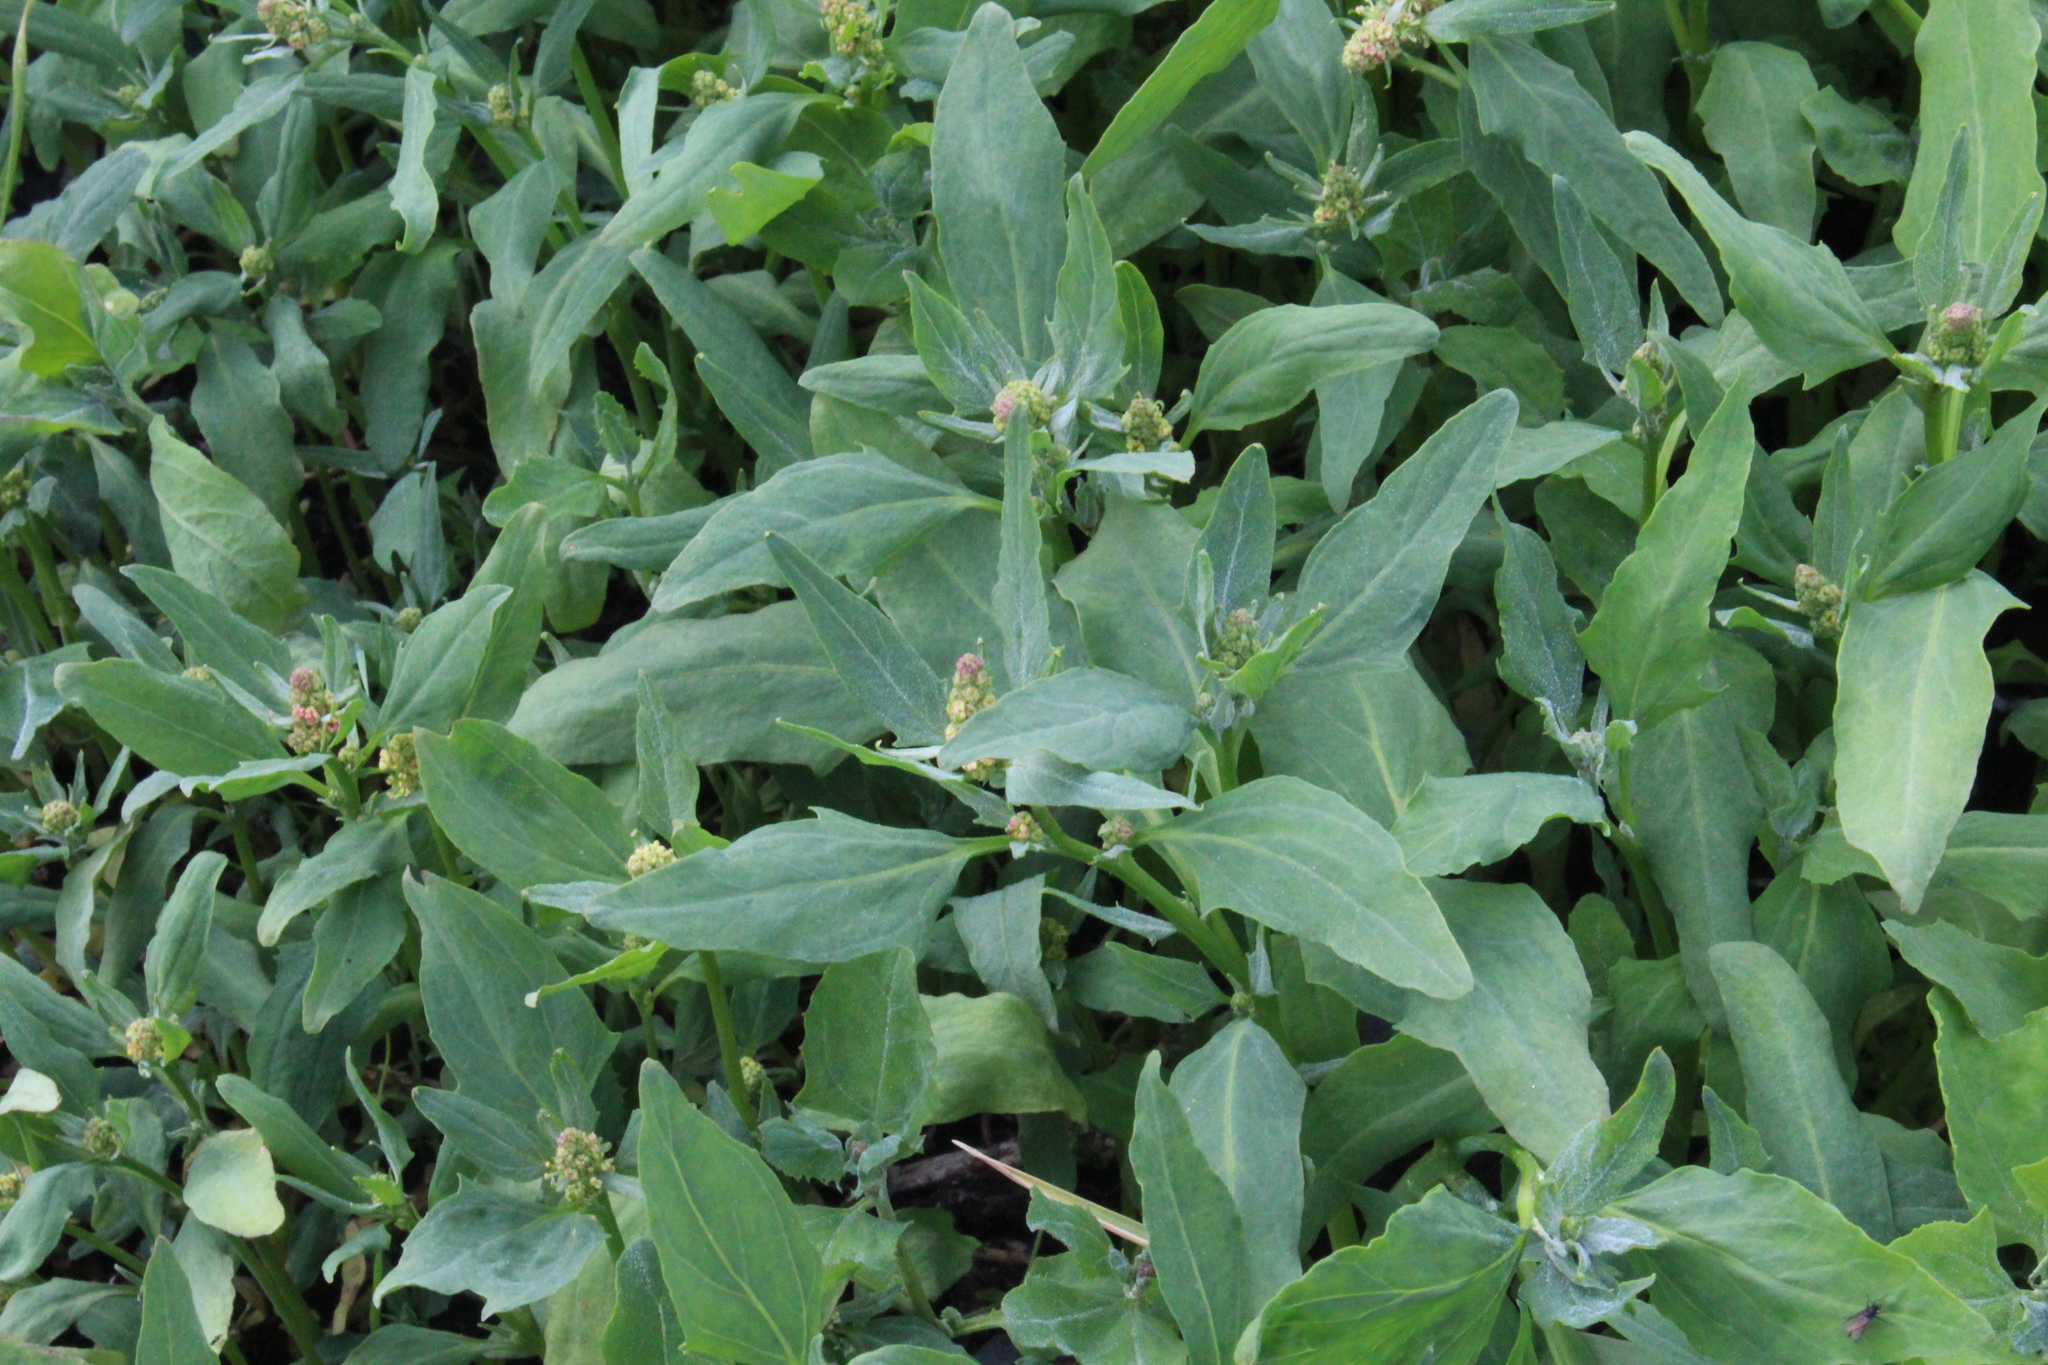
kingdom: Plantae
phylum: Tracheophyta
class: Magnoliopsida
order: Caryophyllales
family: Amaranthaceae
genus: Atriplex
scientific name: Atriplex nudicaulis
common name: Baltic orache
